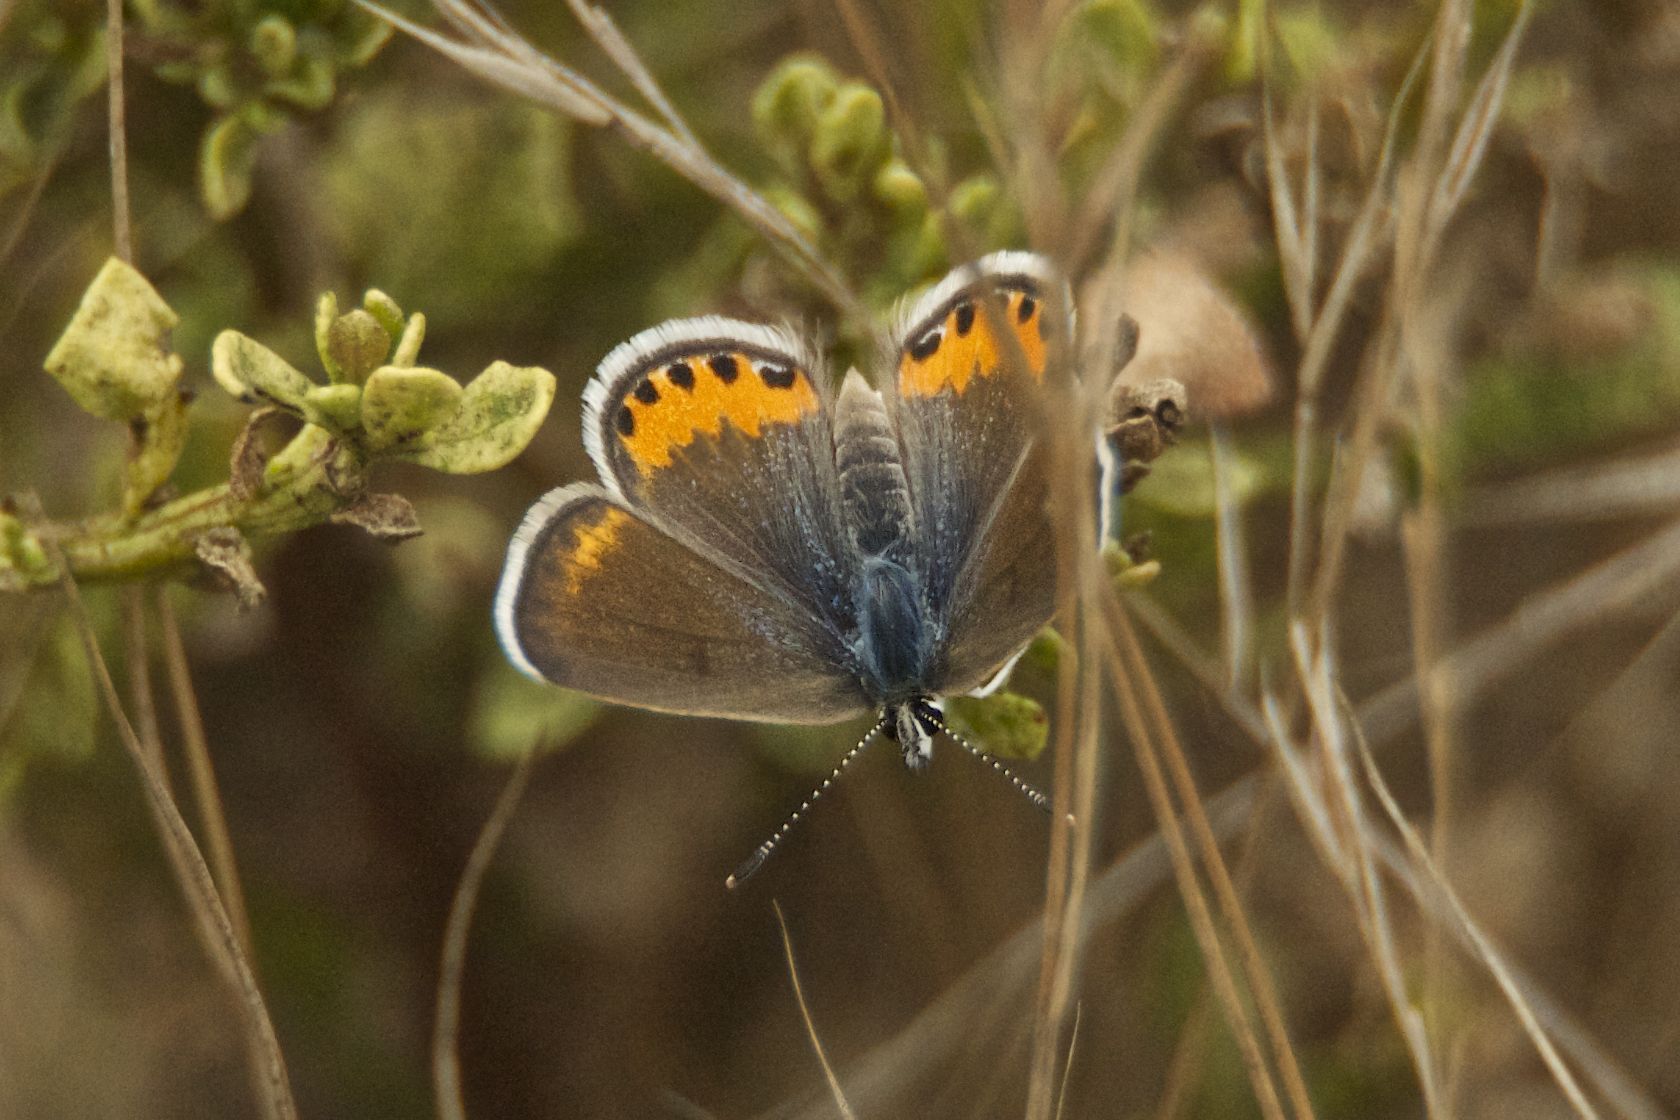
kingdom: Animalia
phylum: Arthropoda
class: Insecta
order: Lepidoptera
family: Lycaenidae
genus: Icaricia
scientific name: Icaricia acmon
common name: Acmon blue
